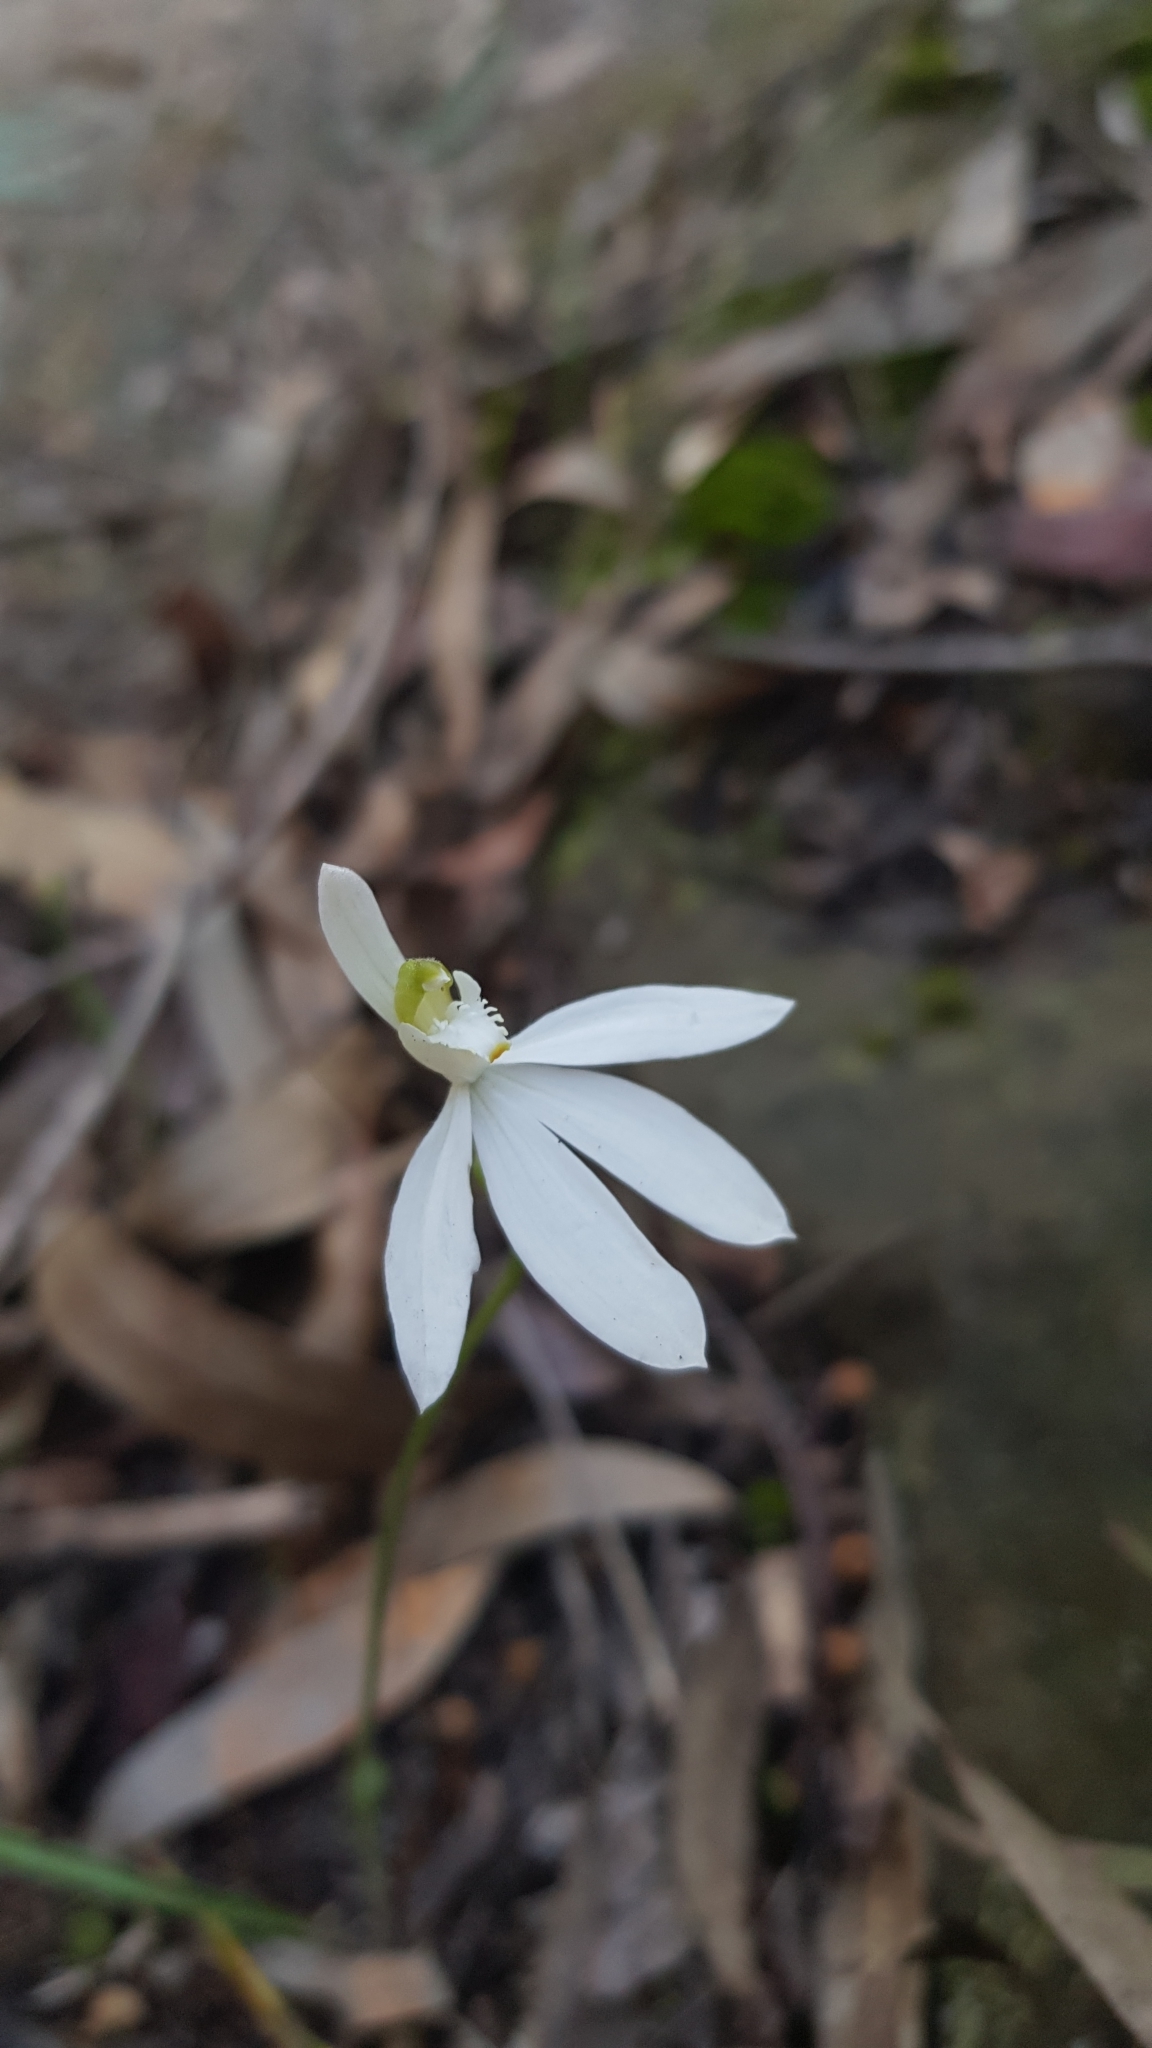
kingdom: Plantae
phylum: Tracheophyta
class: Liliopsida
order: Asparagales
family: Orchidaceae
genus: Caladenia
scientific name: Caladenia catenata
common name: White caladenia
